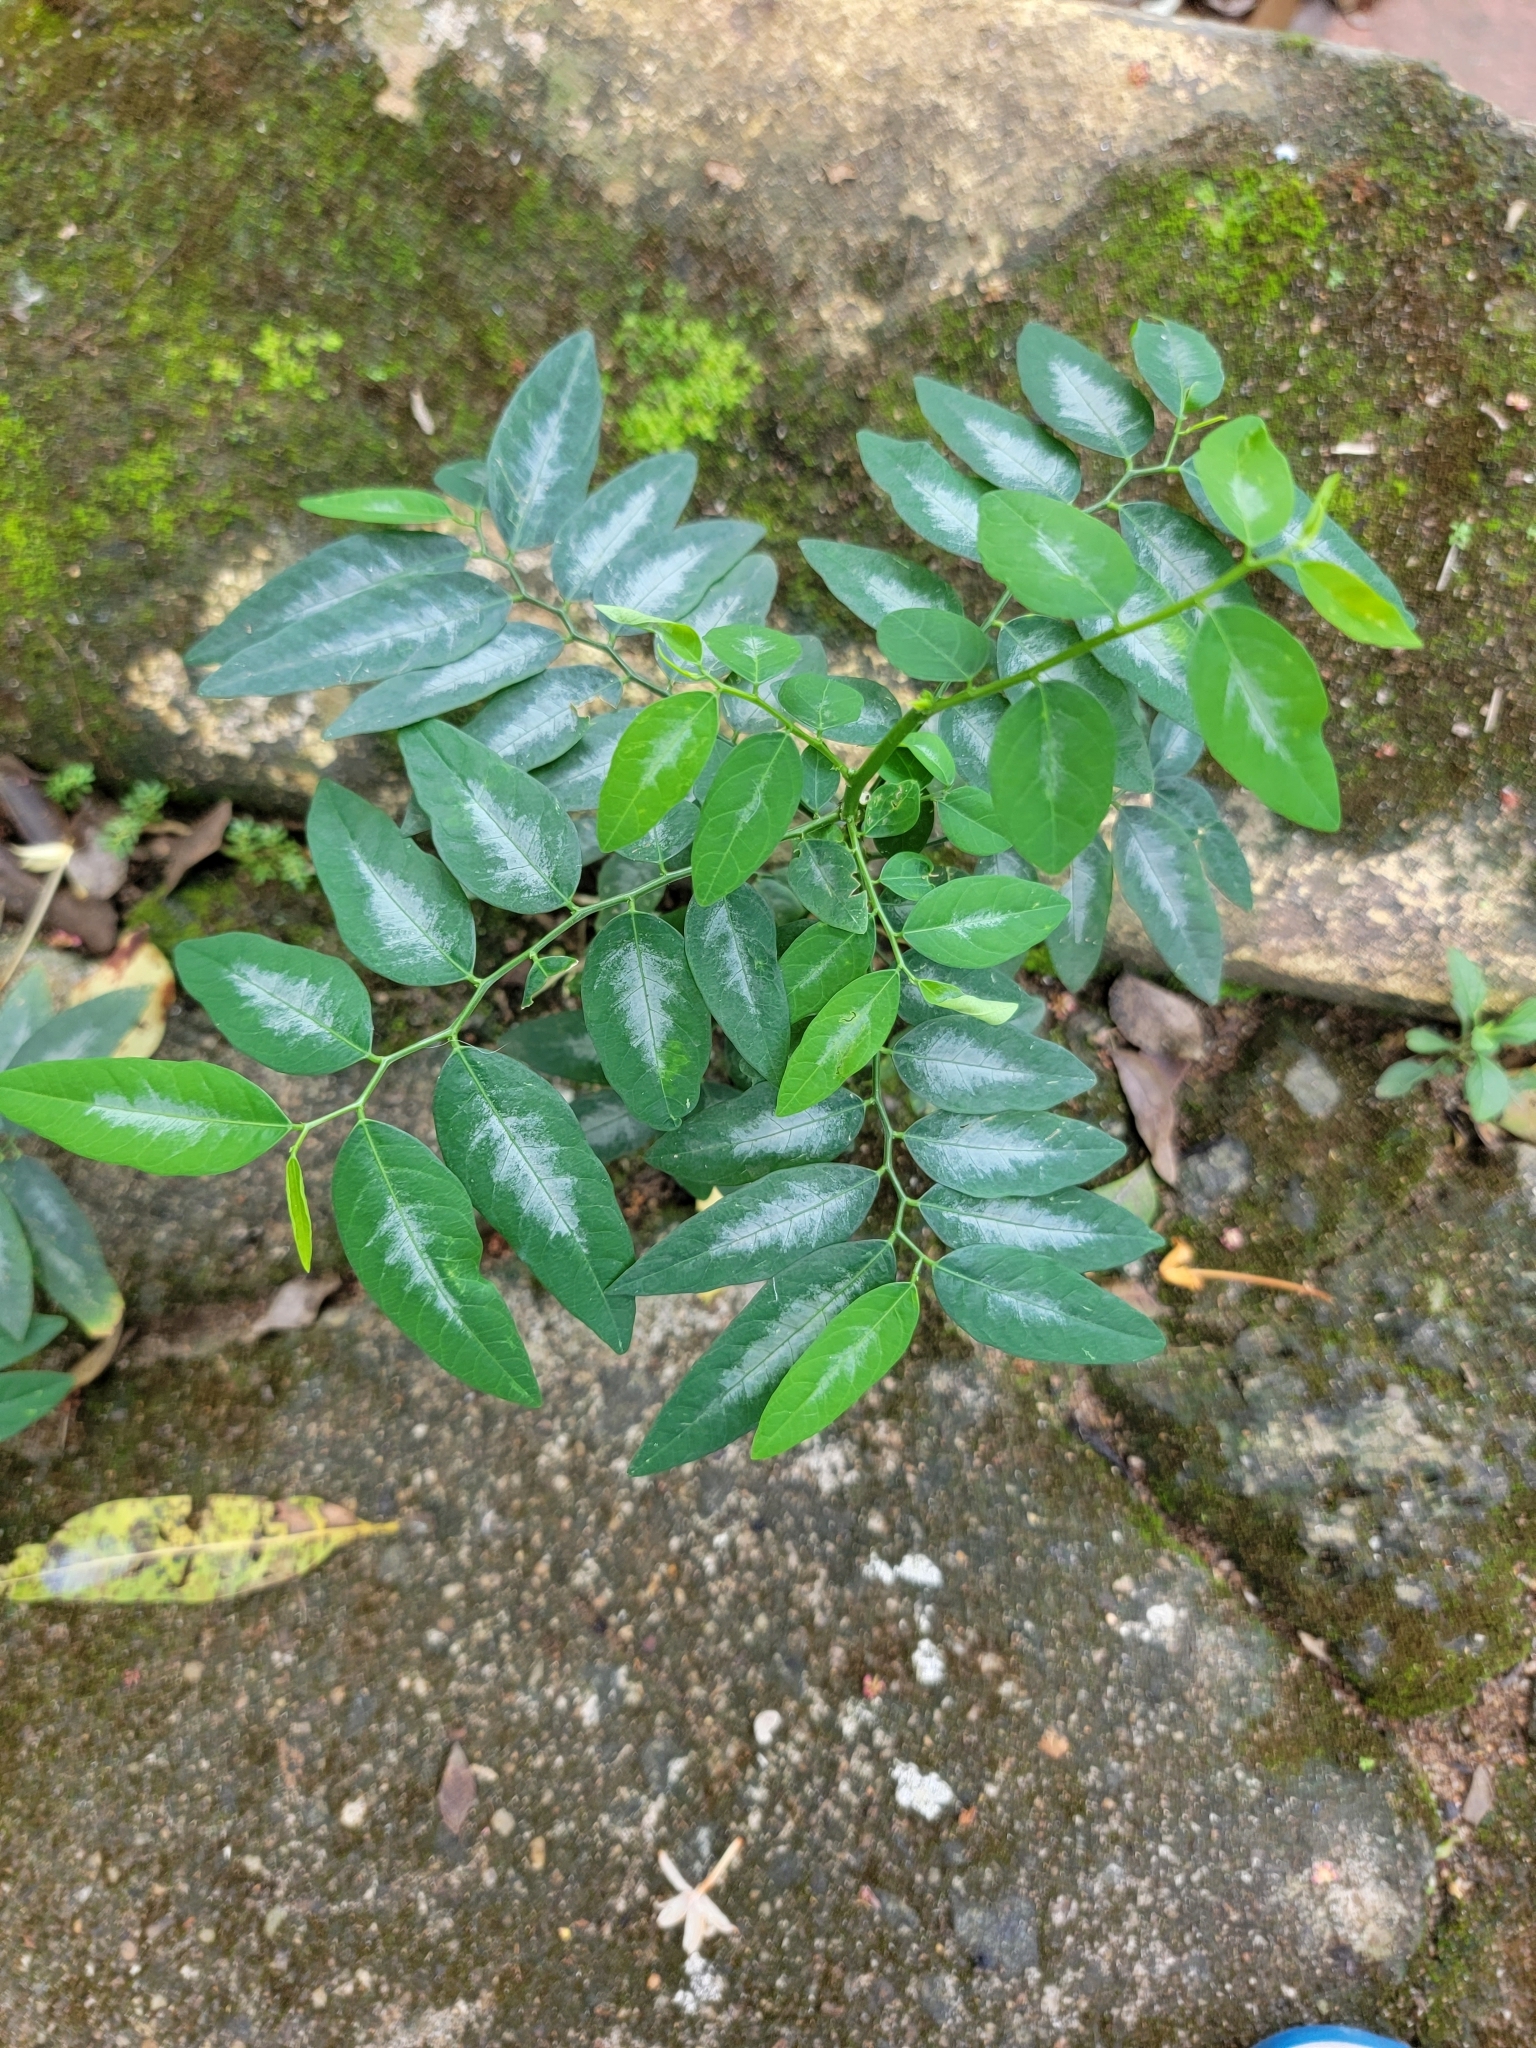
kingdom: Plantae
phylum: Tracheophyta
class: Magnoliopsida
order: Malpighiales
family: Phyllanthaceae
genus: Breynia
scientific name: Breynia androgyna
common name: Star gooseberry
